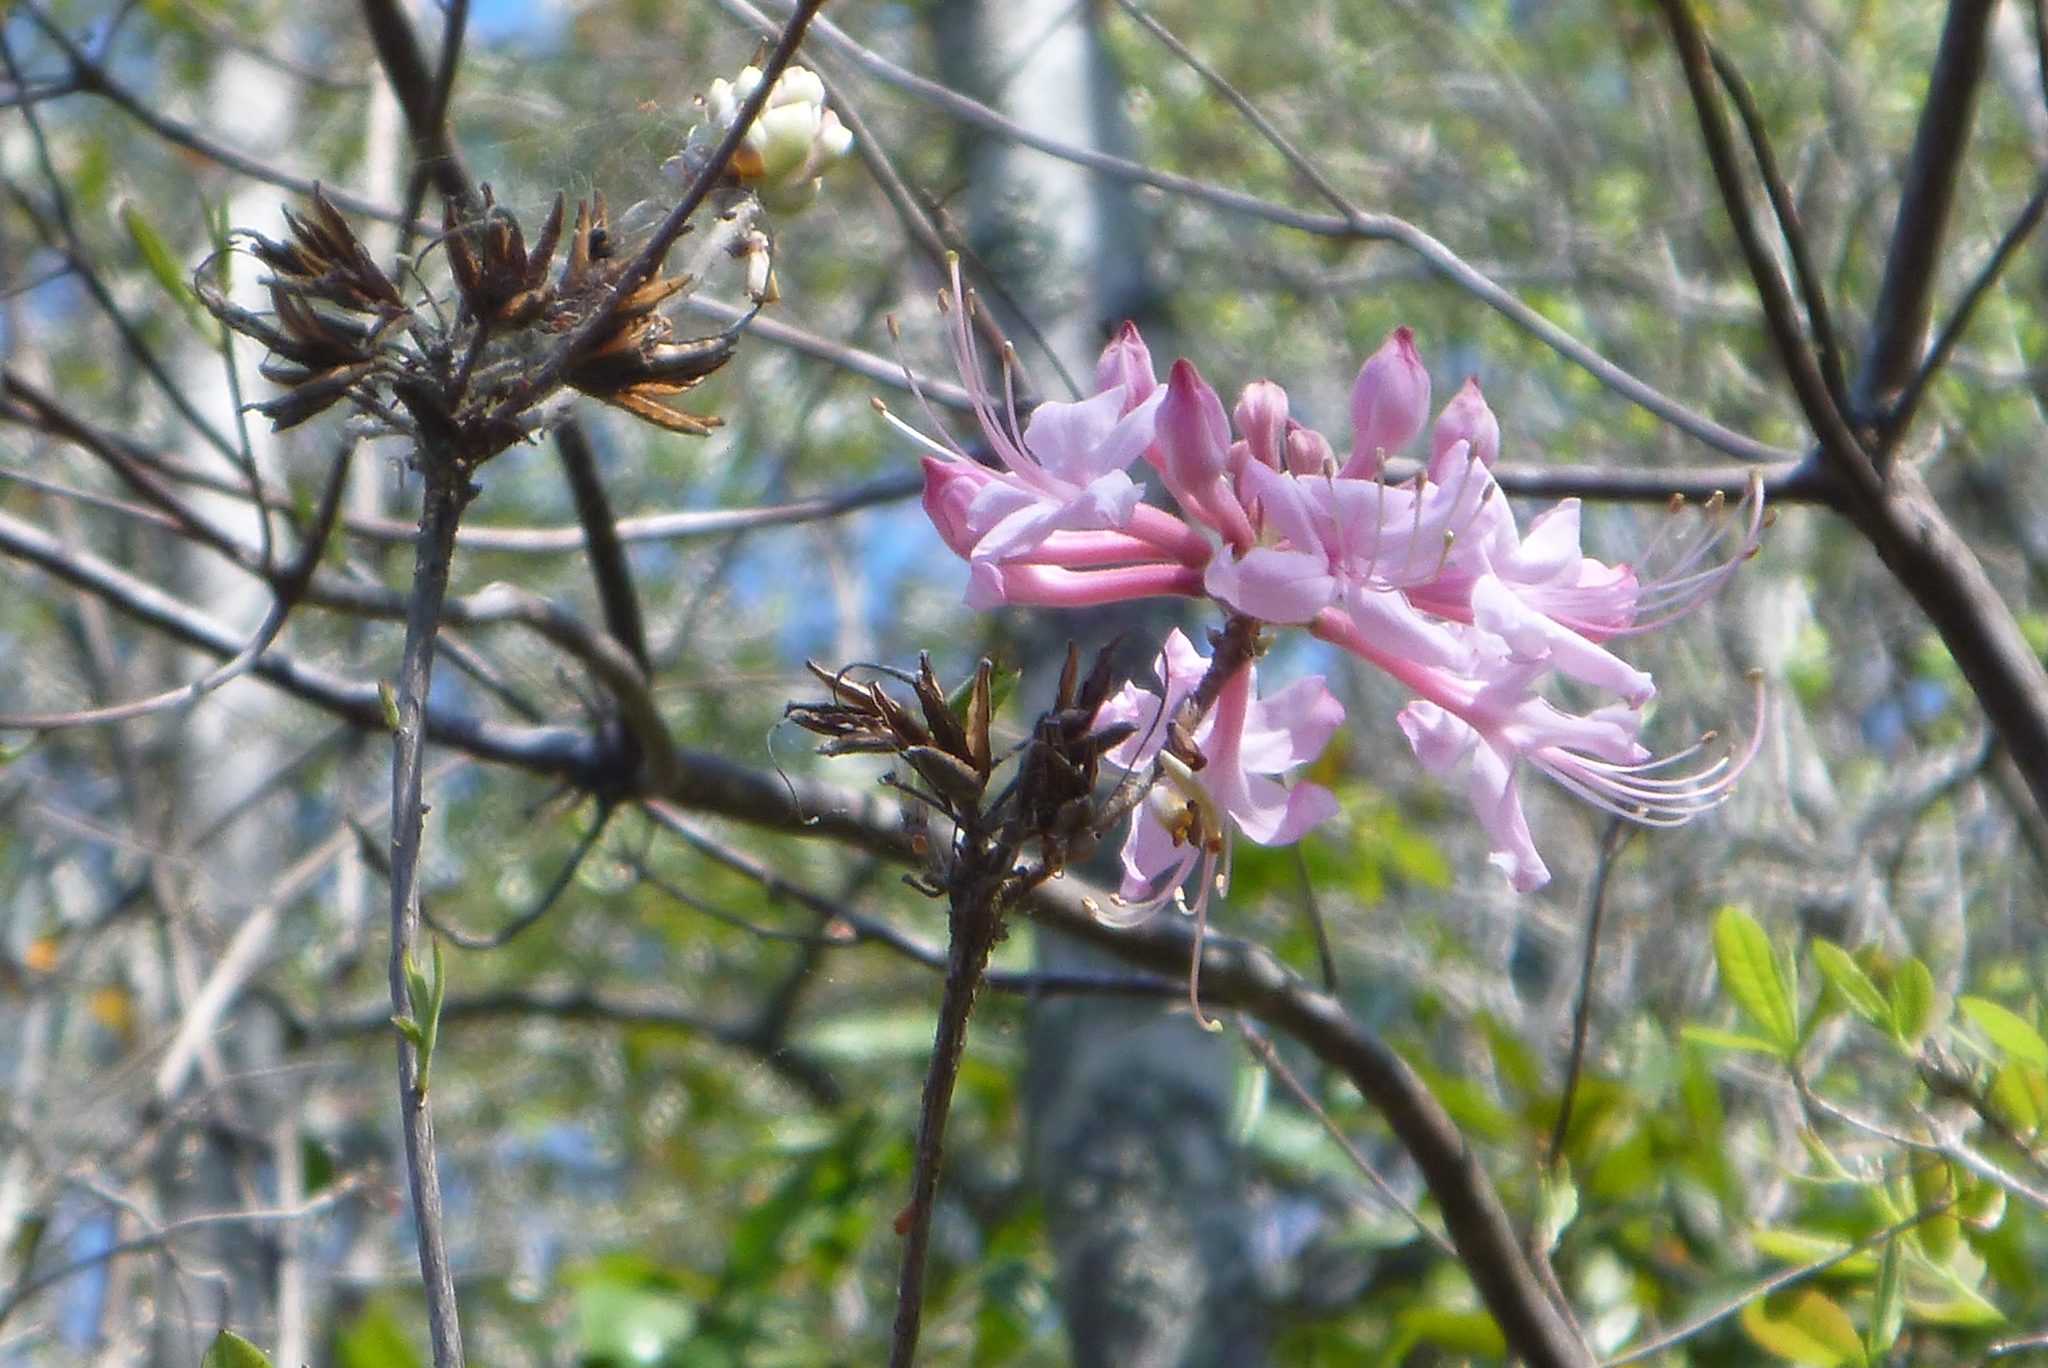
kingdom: Plantae
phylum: Tracheophyta
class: Magnoliopsida
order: Ericales
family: Ericaceae
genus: Rhododendron
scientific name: Rhododendron canescens
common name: Mountain azalea
